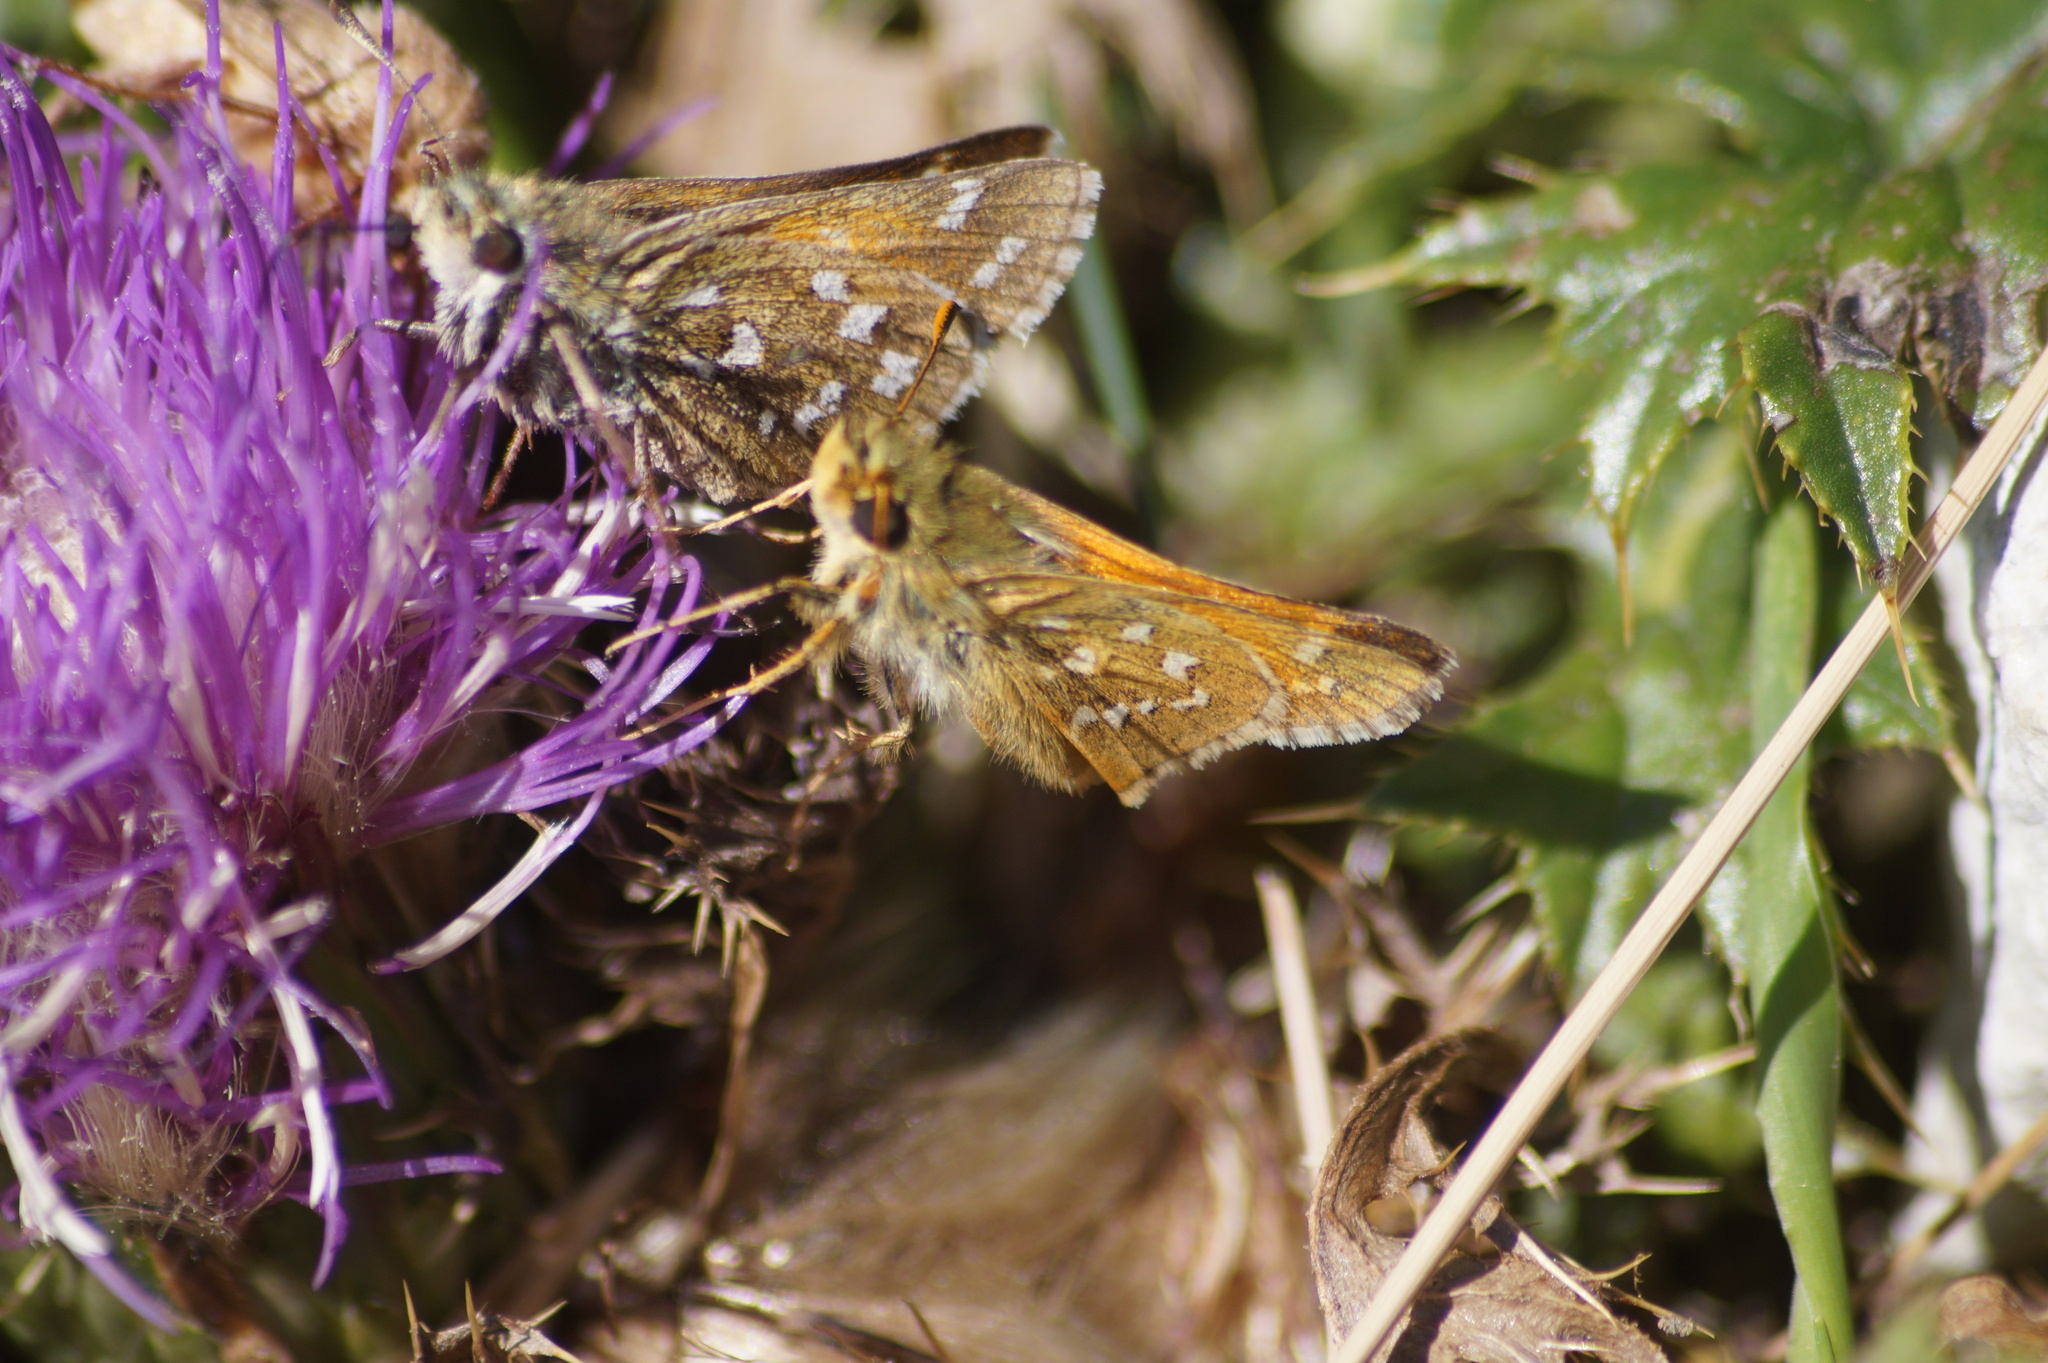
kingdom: Animalia
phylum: Arthropoda
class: Insecta
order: Lepidoptera
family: Hesperiidae
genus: Hesperia
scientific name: Hesperia comma
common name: Common branded skipper
